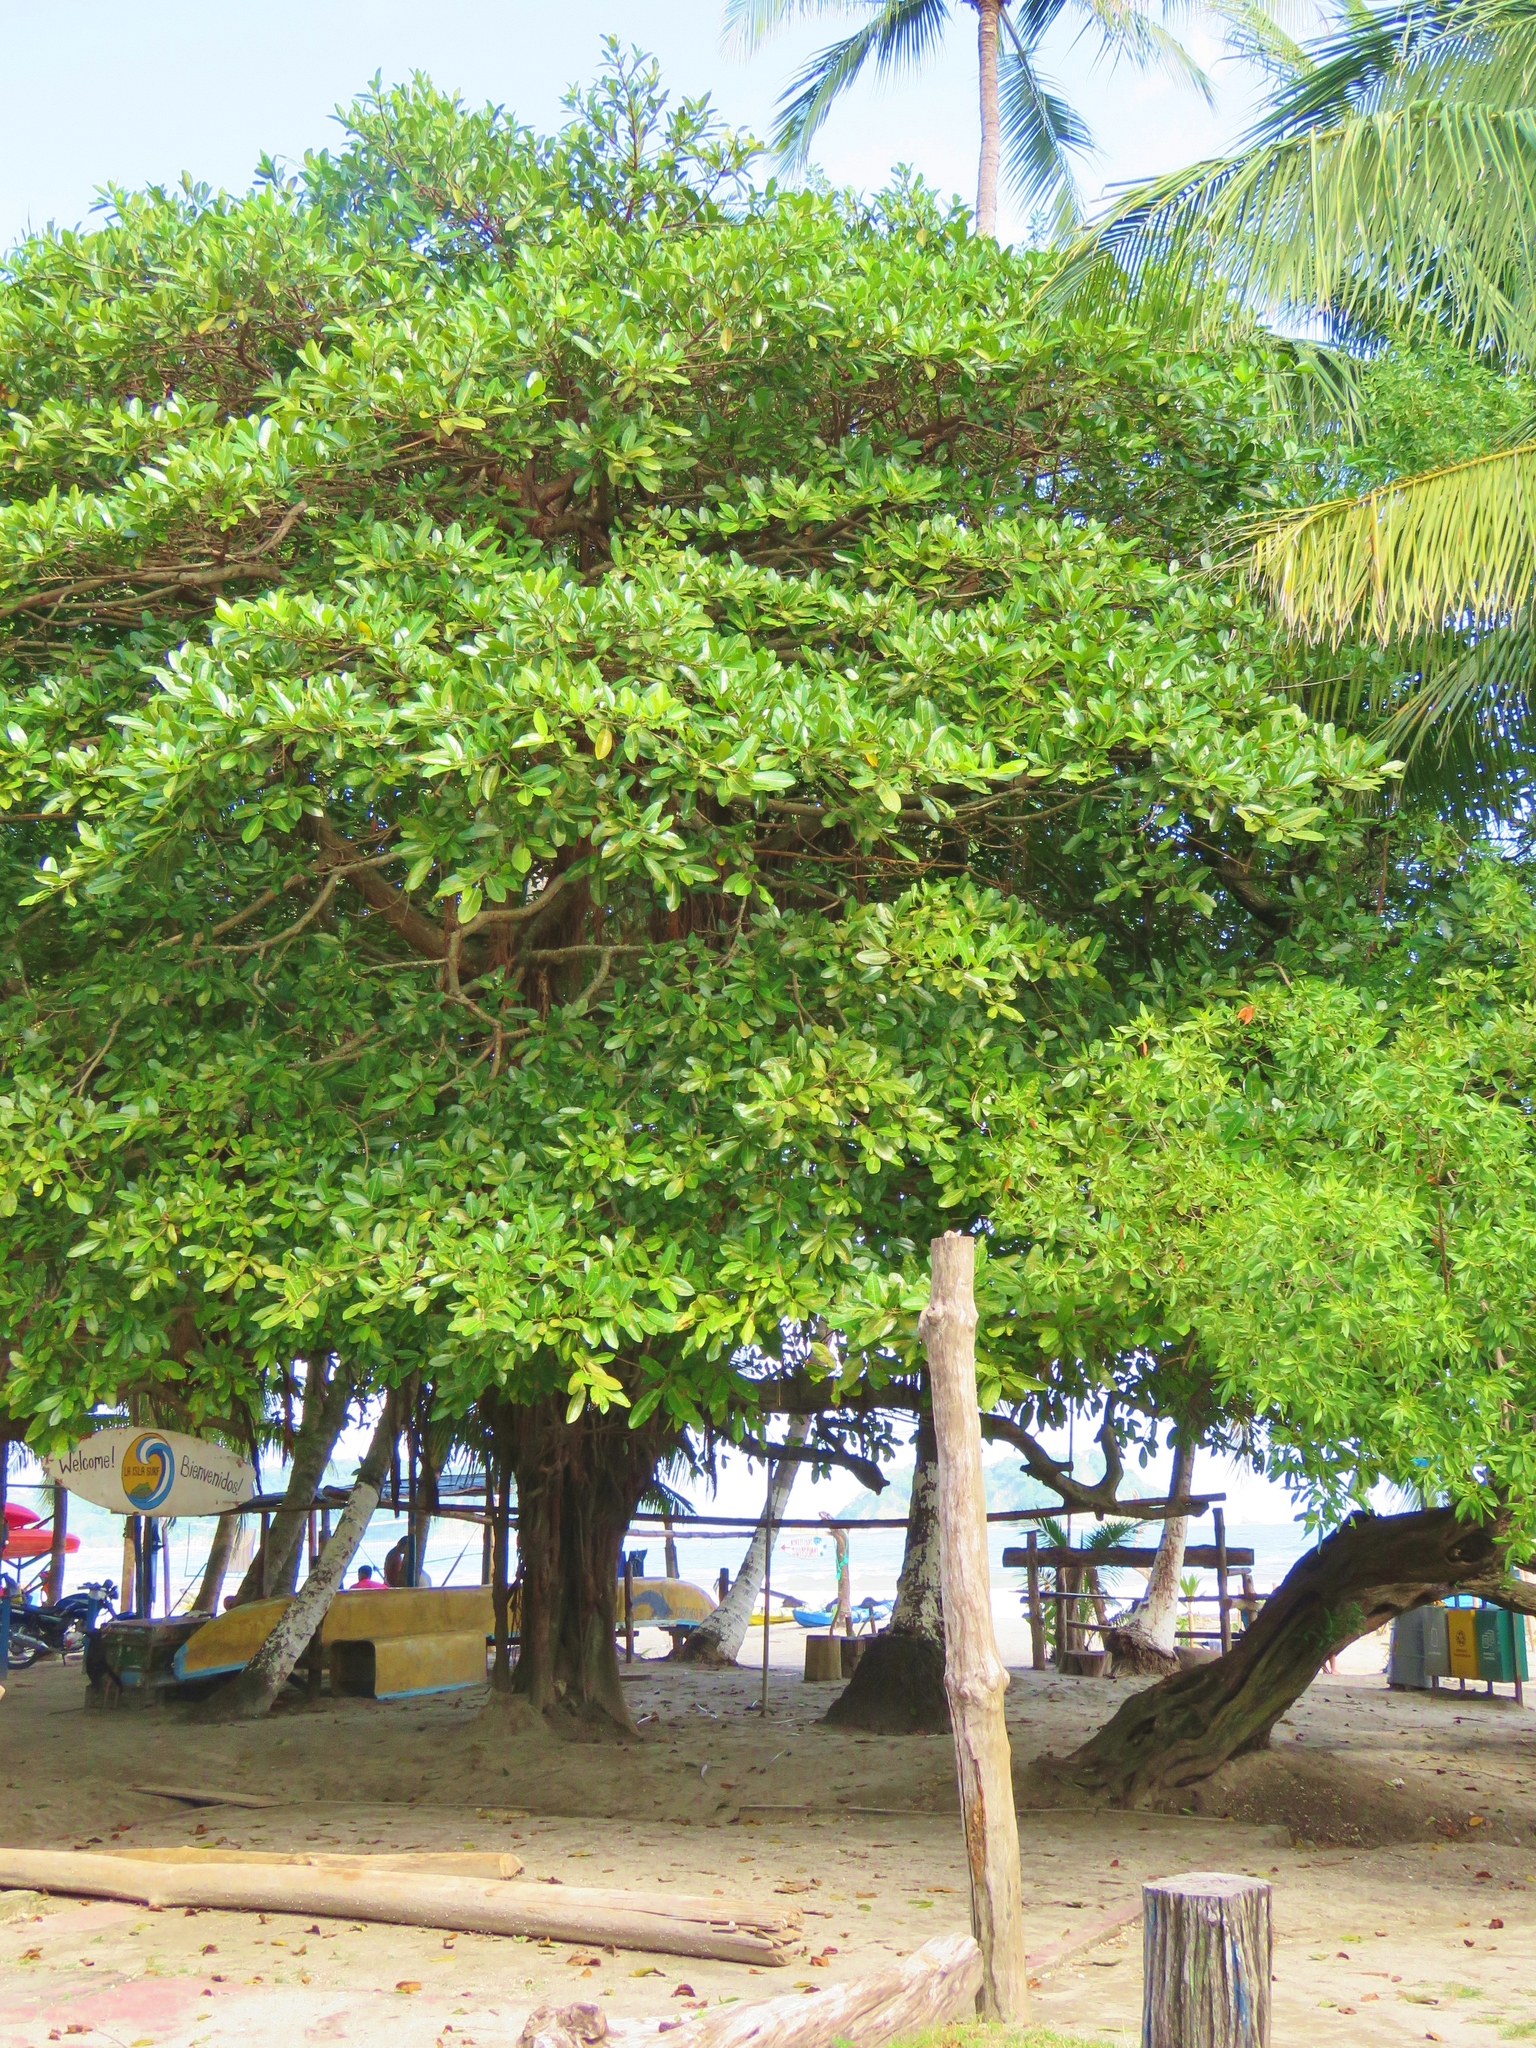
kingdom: Plantae
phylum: Tracheophyta
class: Magnoliopsida
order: Myrtales
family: Combretaceae
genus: Terminalia
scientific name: Terminalia catappa
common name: Tropical almond
